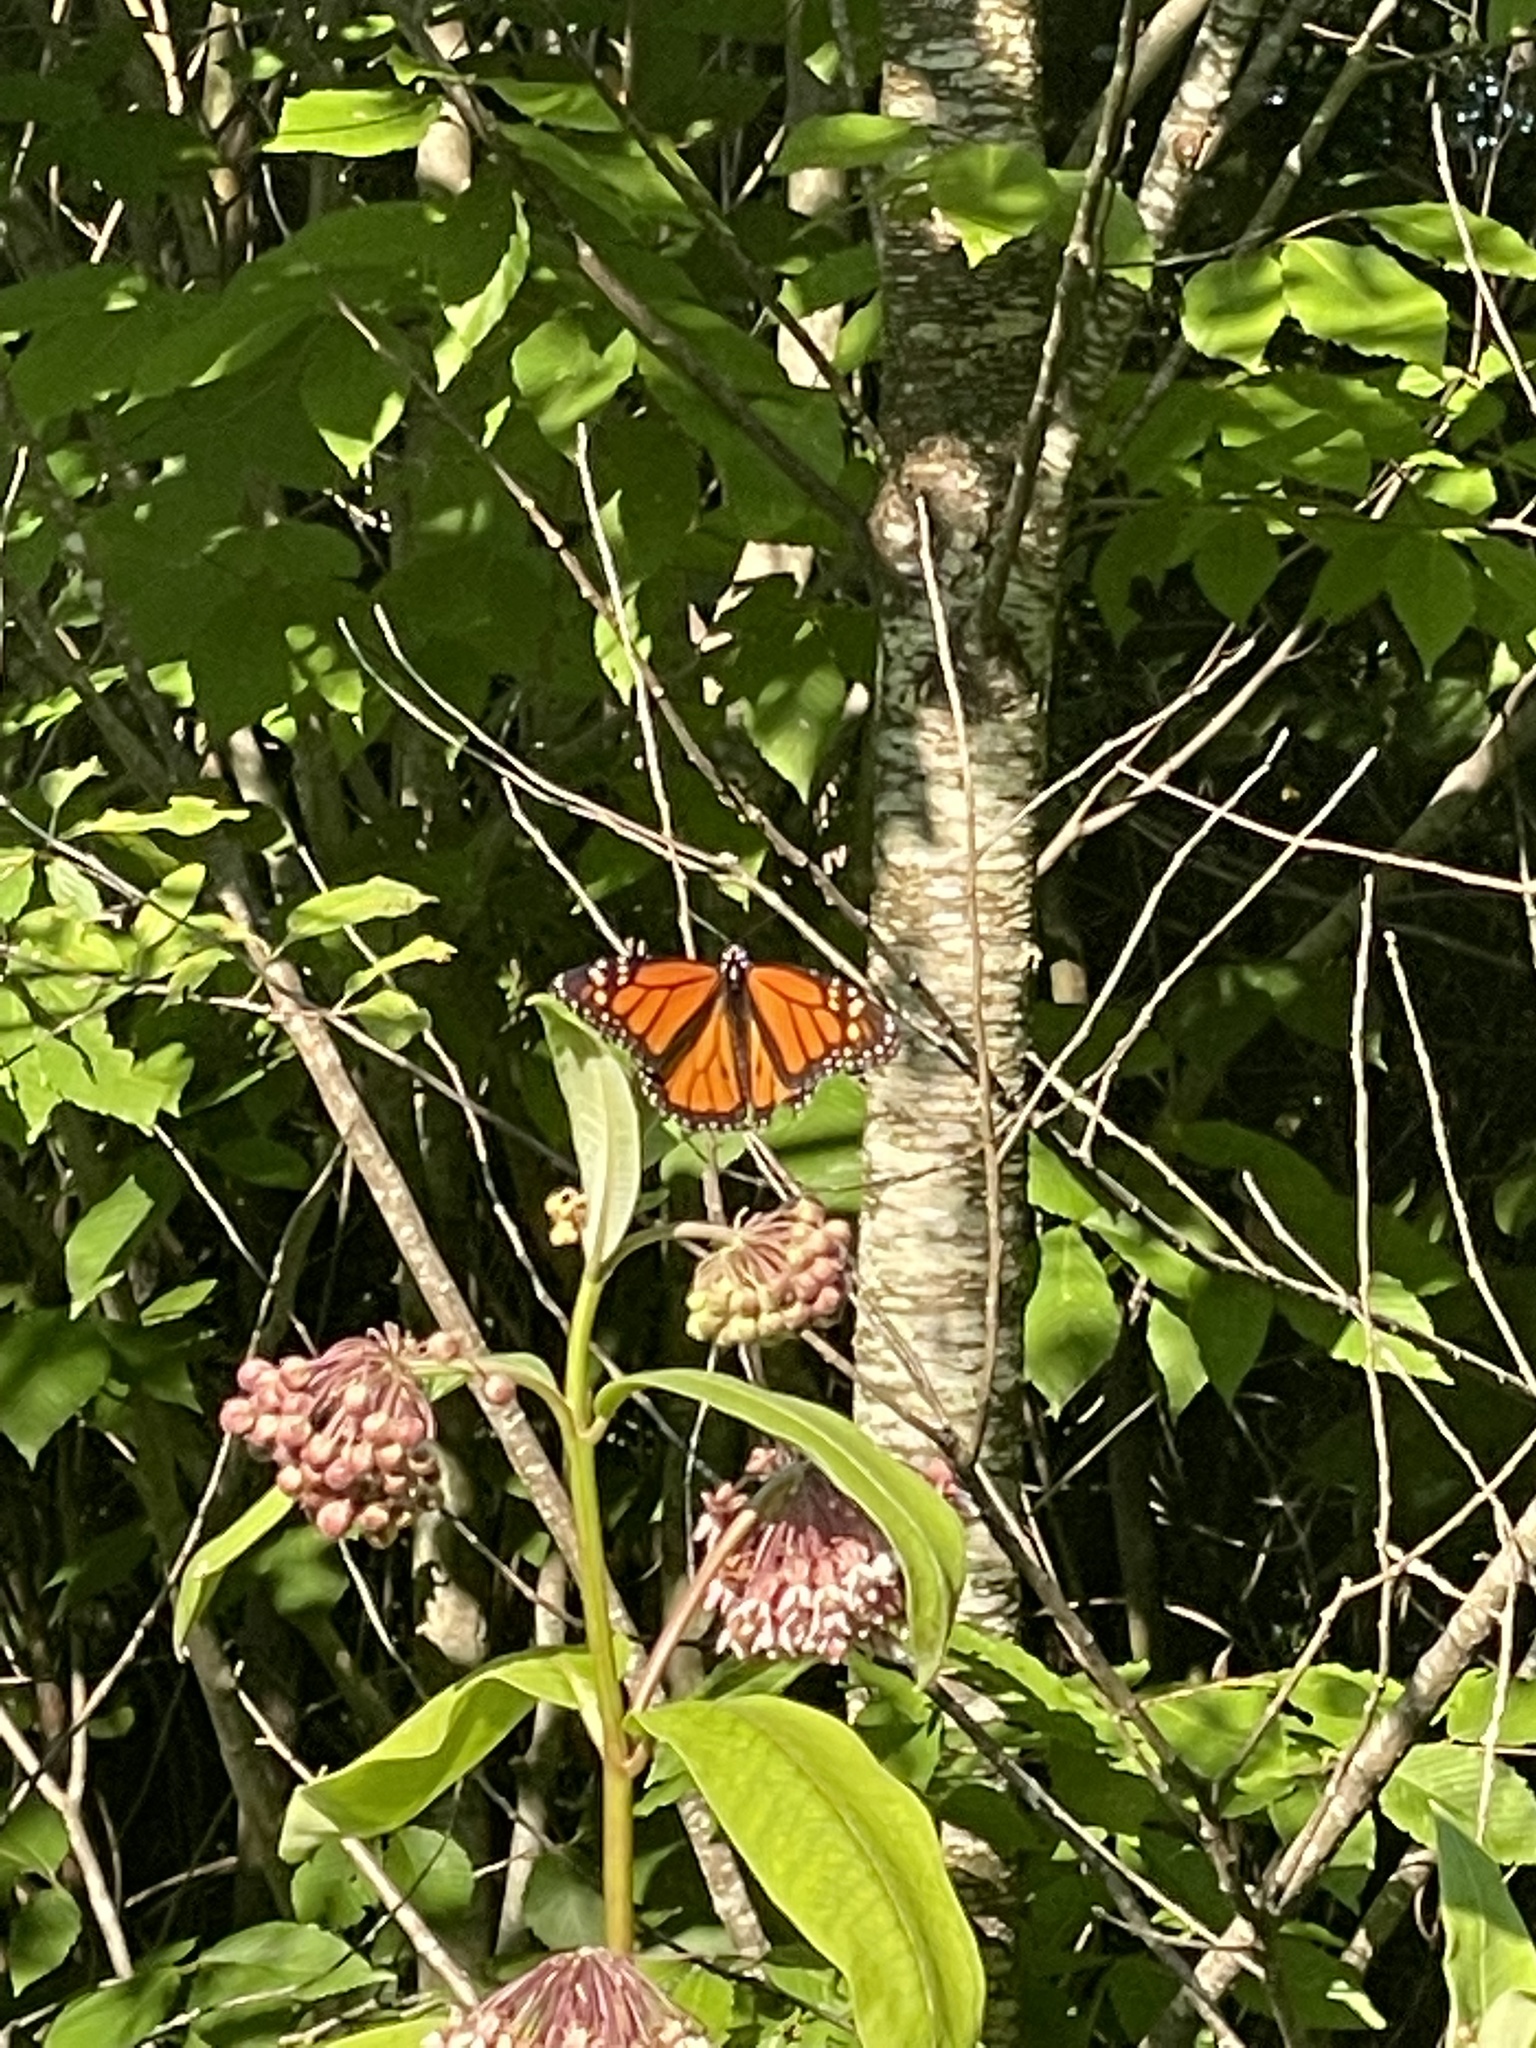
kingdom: Animalia
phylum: Arthropoda
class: Insecta
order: Lepidoptera
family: Nymphalidae
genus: Danaus
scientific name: Danaus plexippus
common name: Monarch
